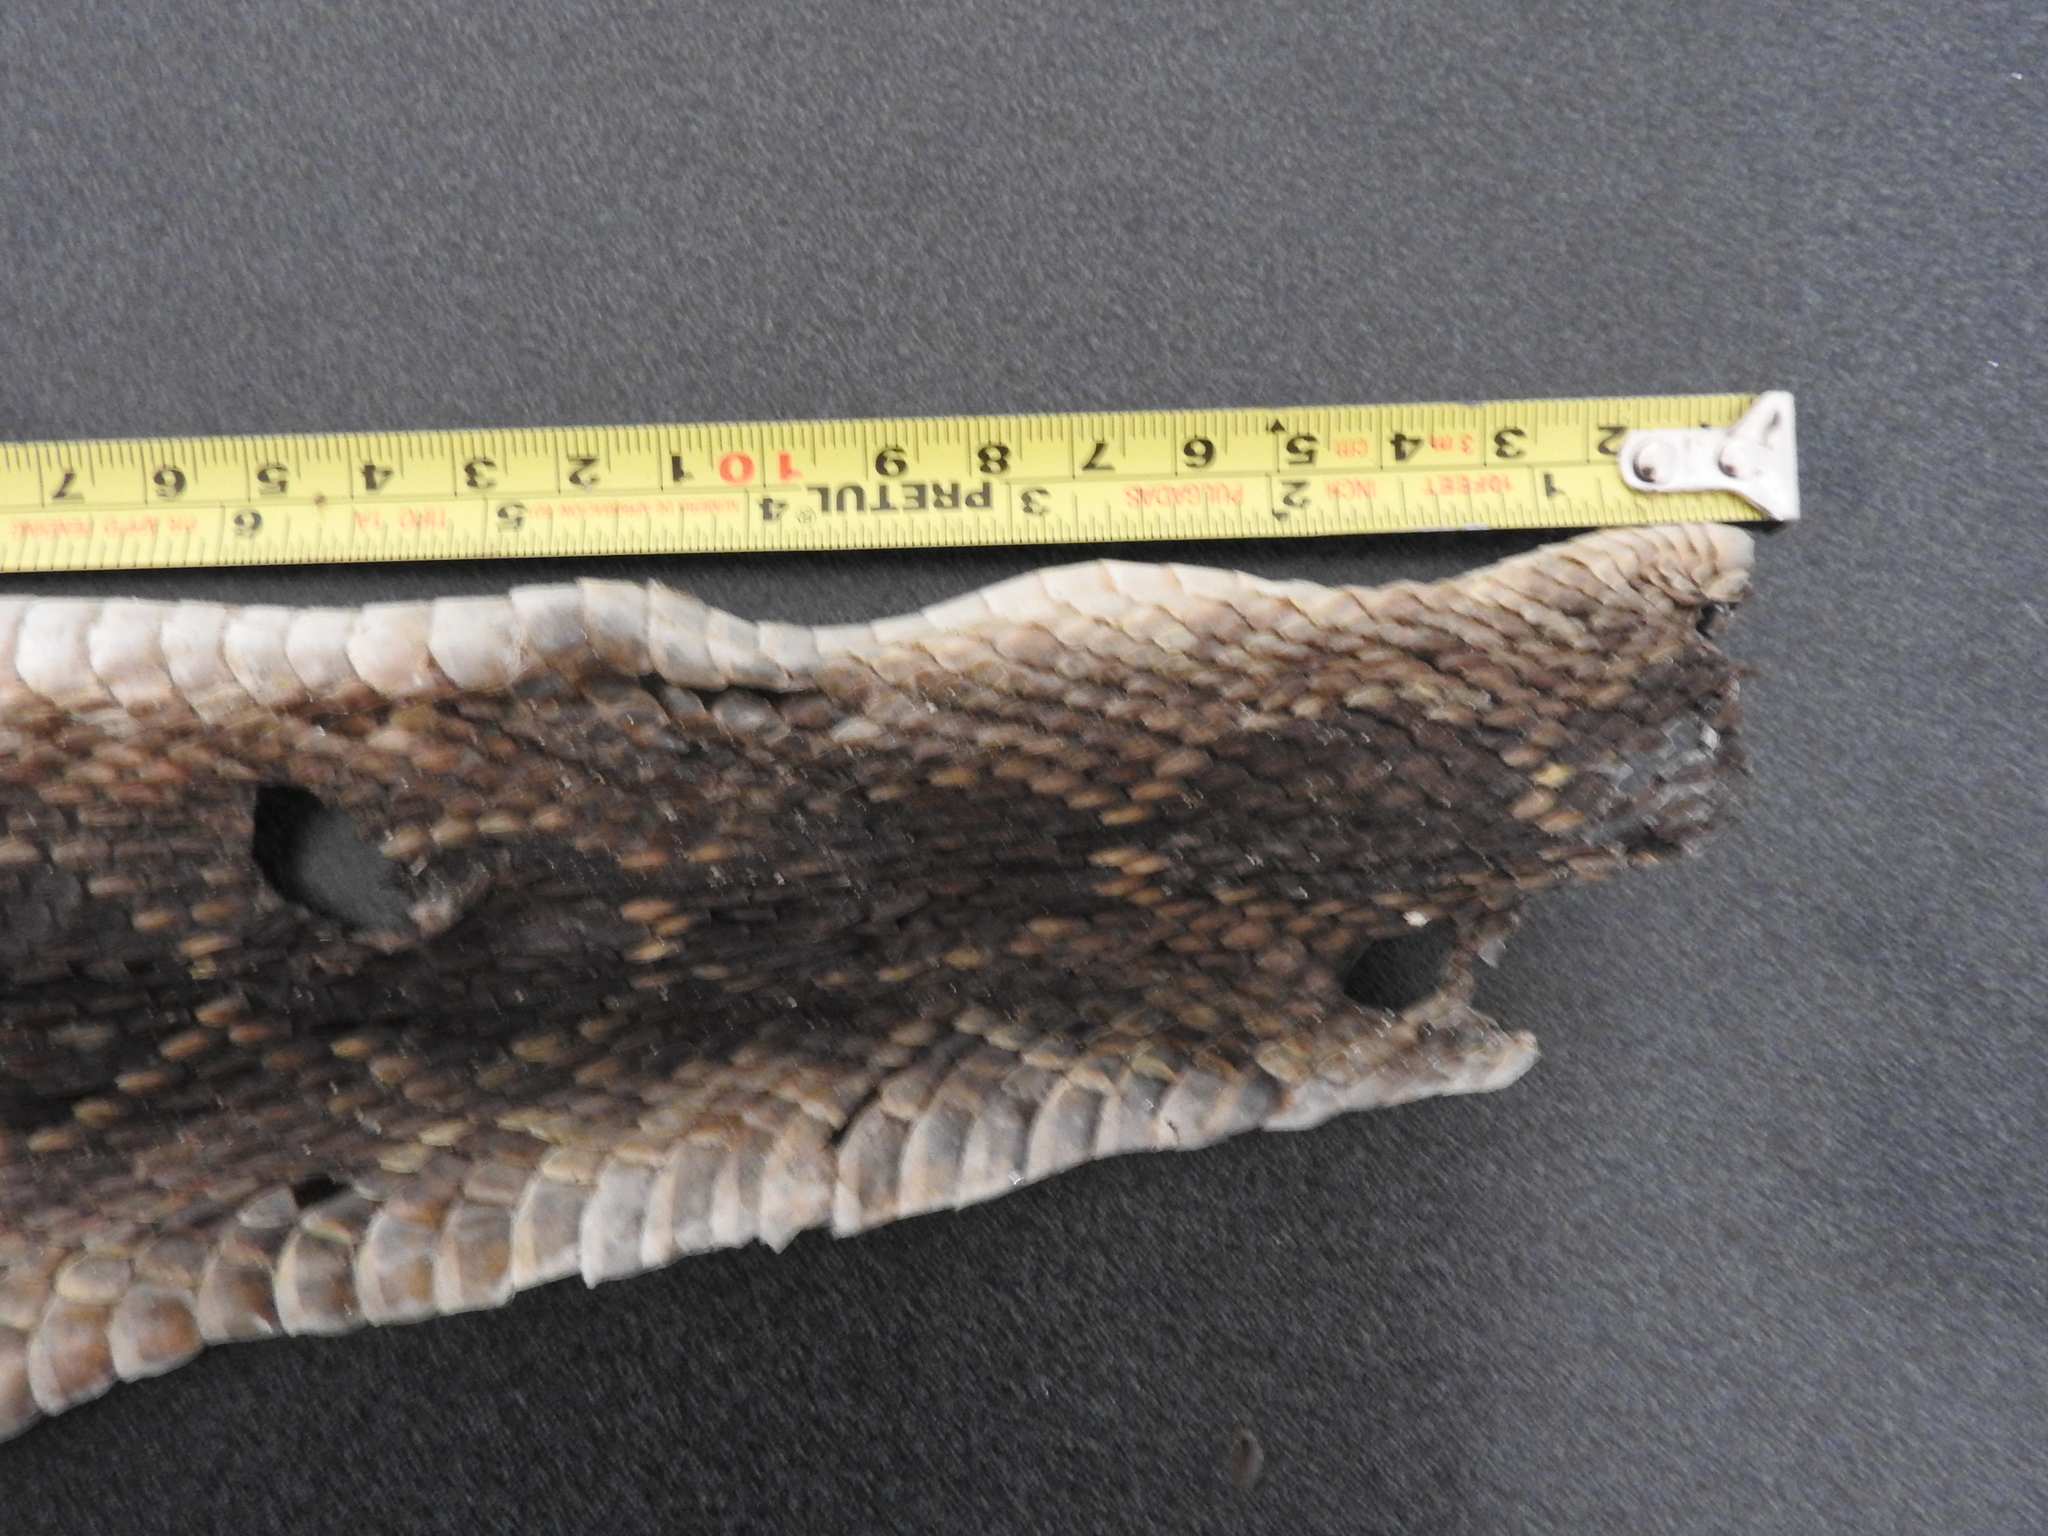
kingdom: Animalia
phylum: Chordata
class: Squamata
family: Viperidae
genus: Crotalus
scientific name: Crotalus molossus
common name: Black tailed rattlesnake
